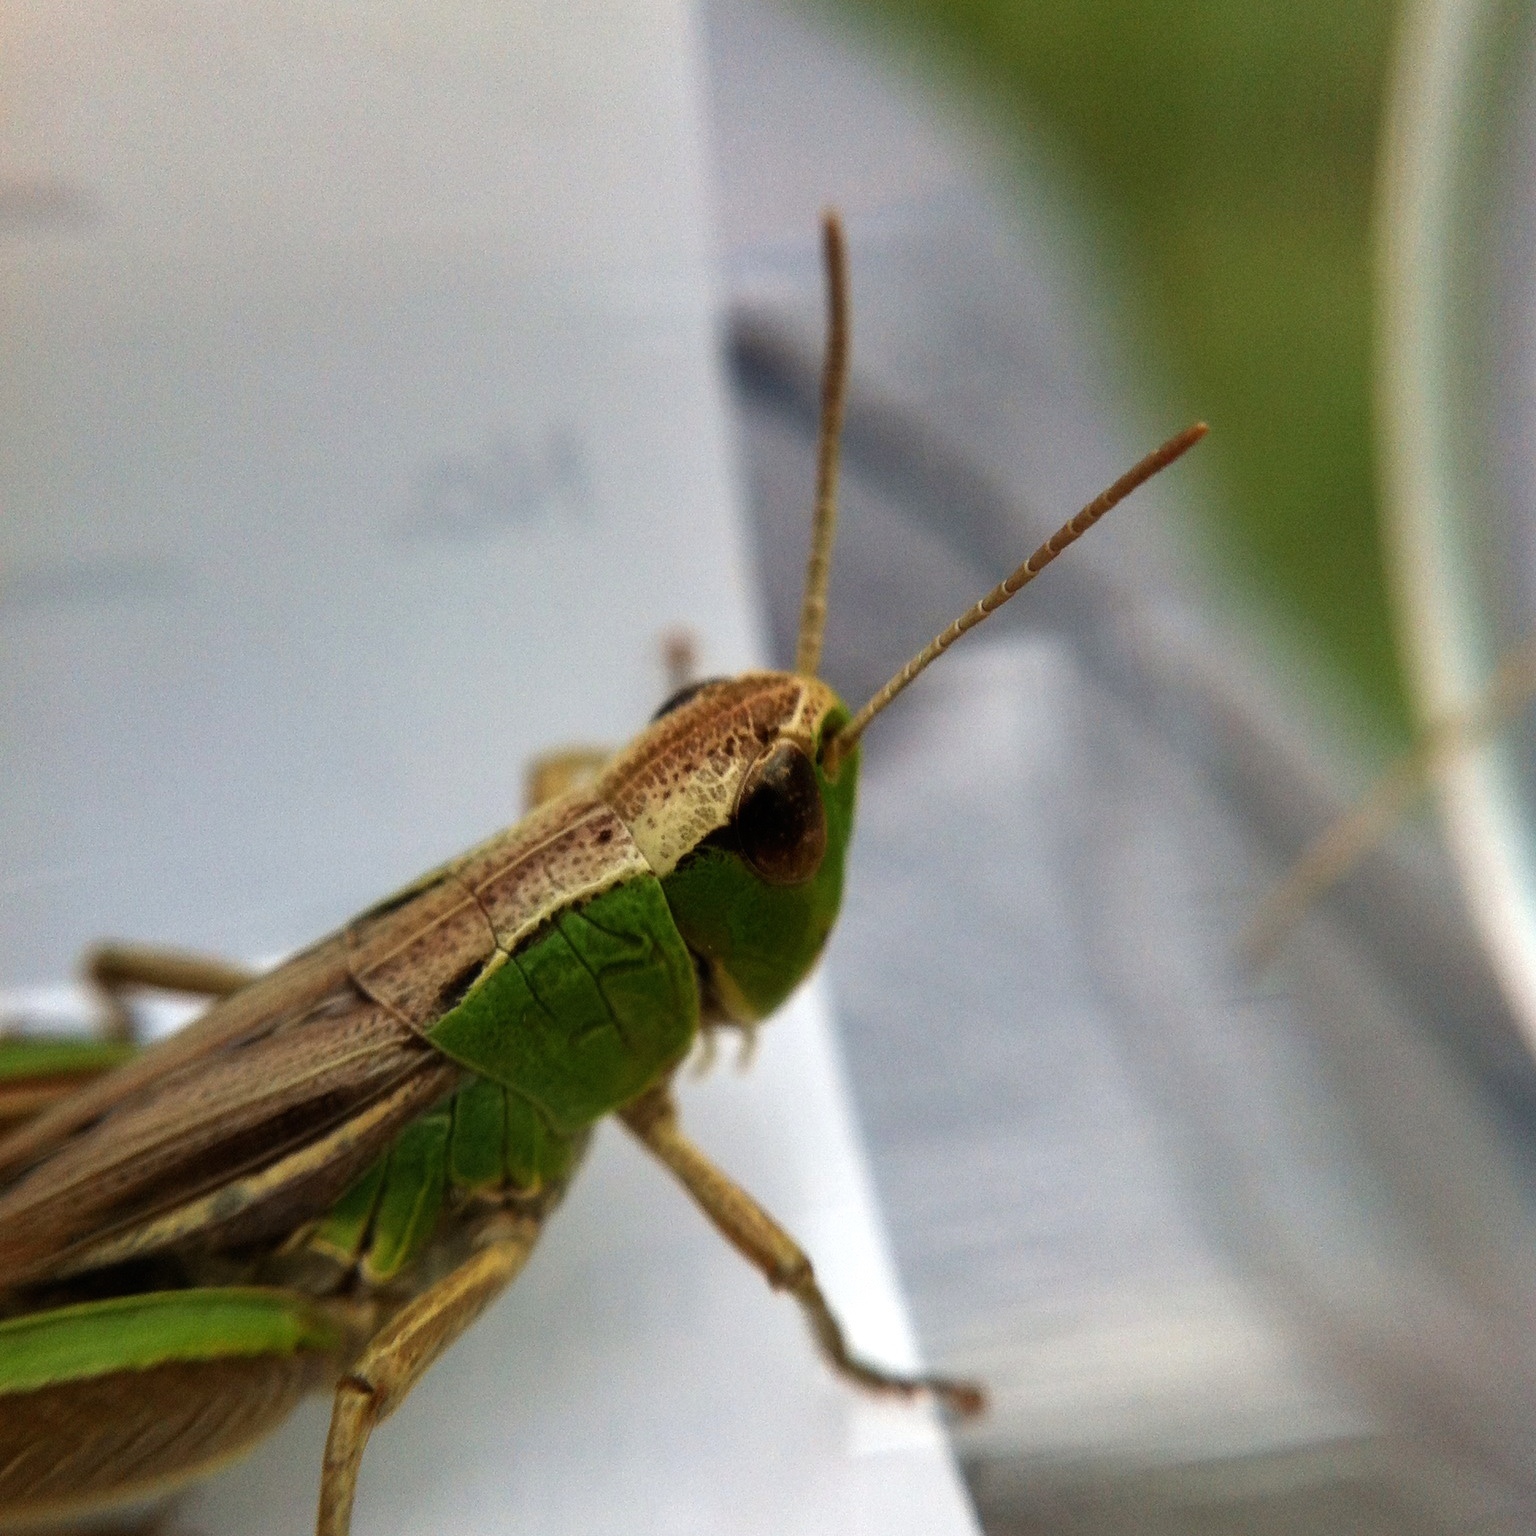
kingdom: Animalia
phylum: Arthropoda
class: Insecta
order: Orthoptera
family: Acrididae
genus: Pseudochorthippus
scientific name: Pseudochorthippus parallelus
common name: Meadow grasshopper
